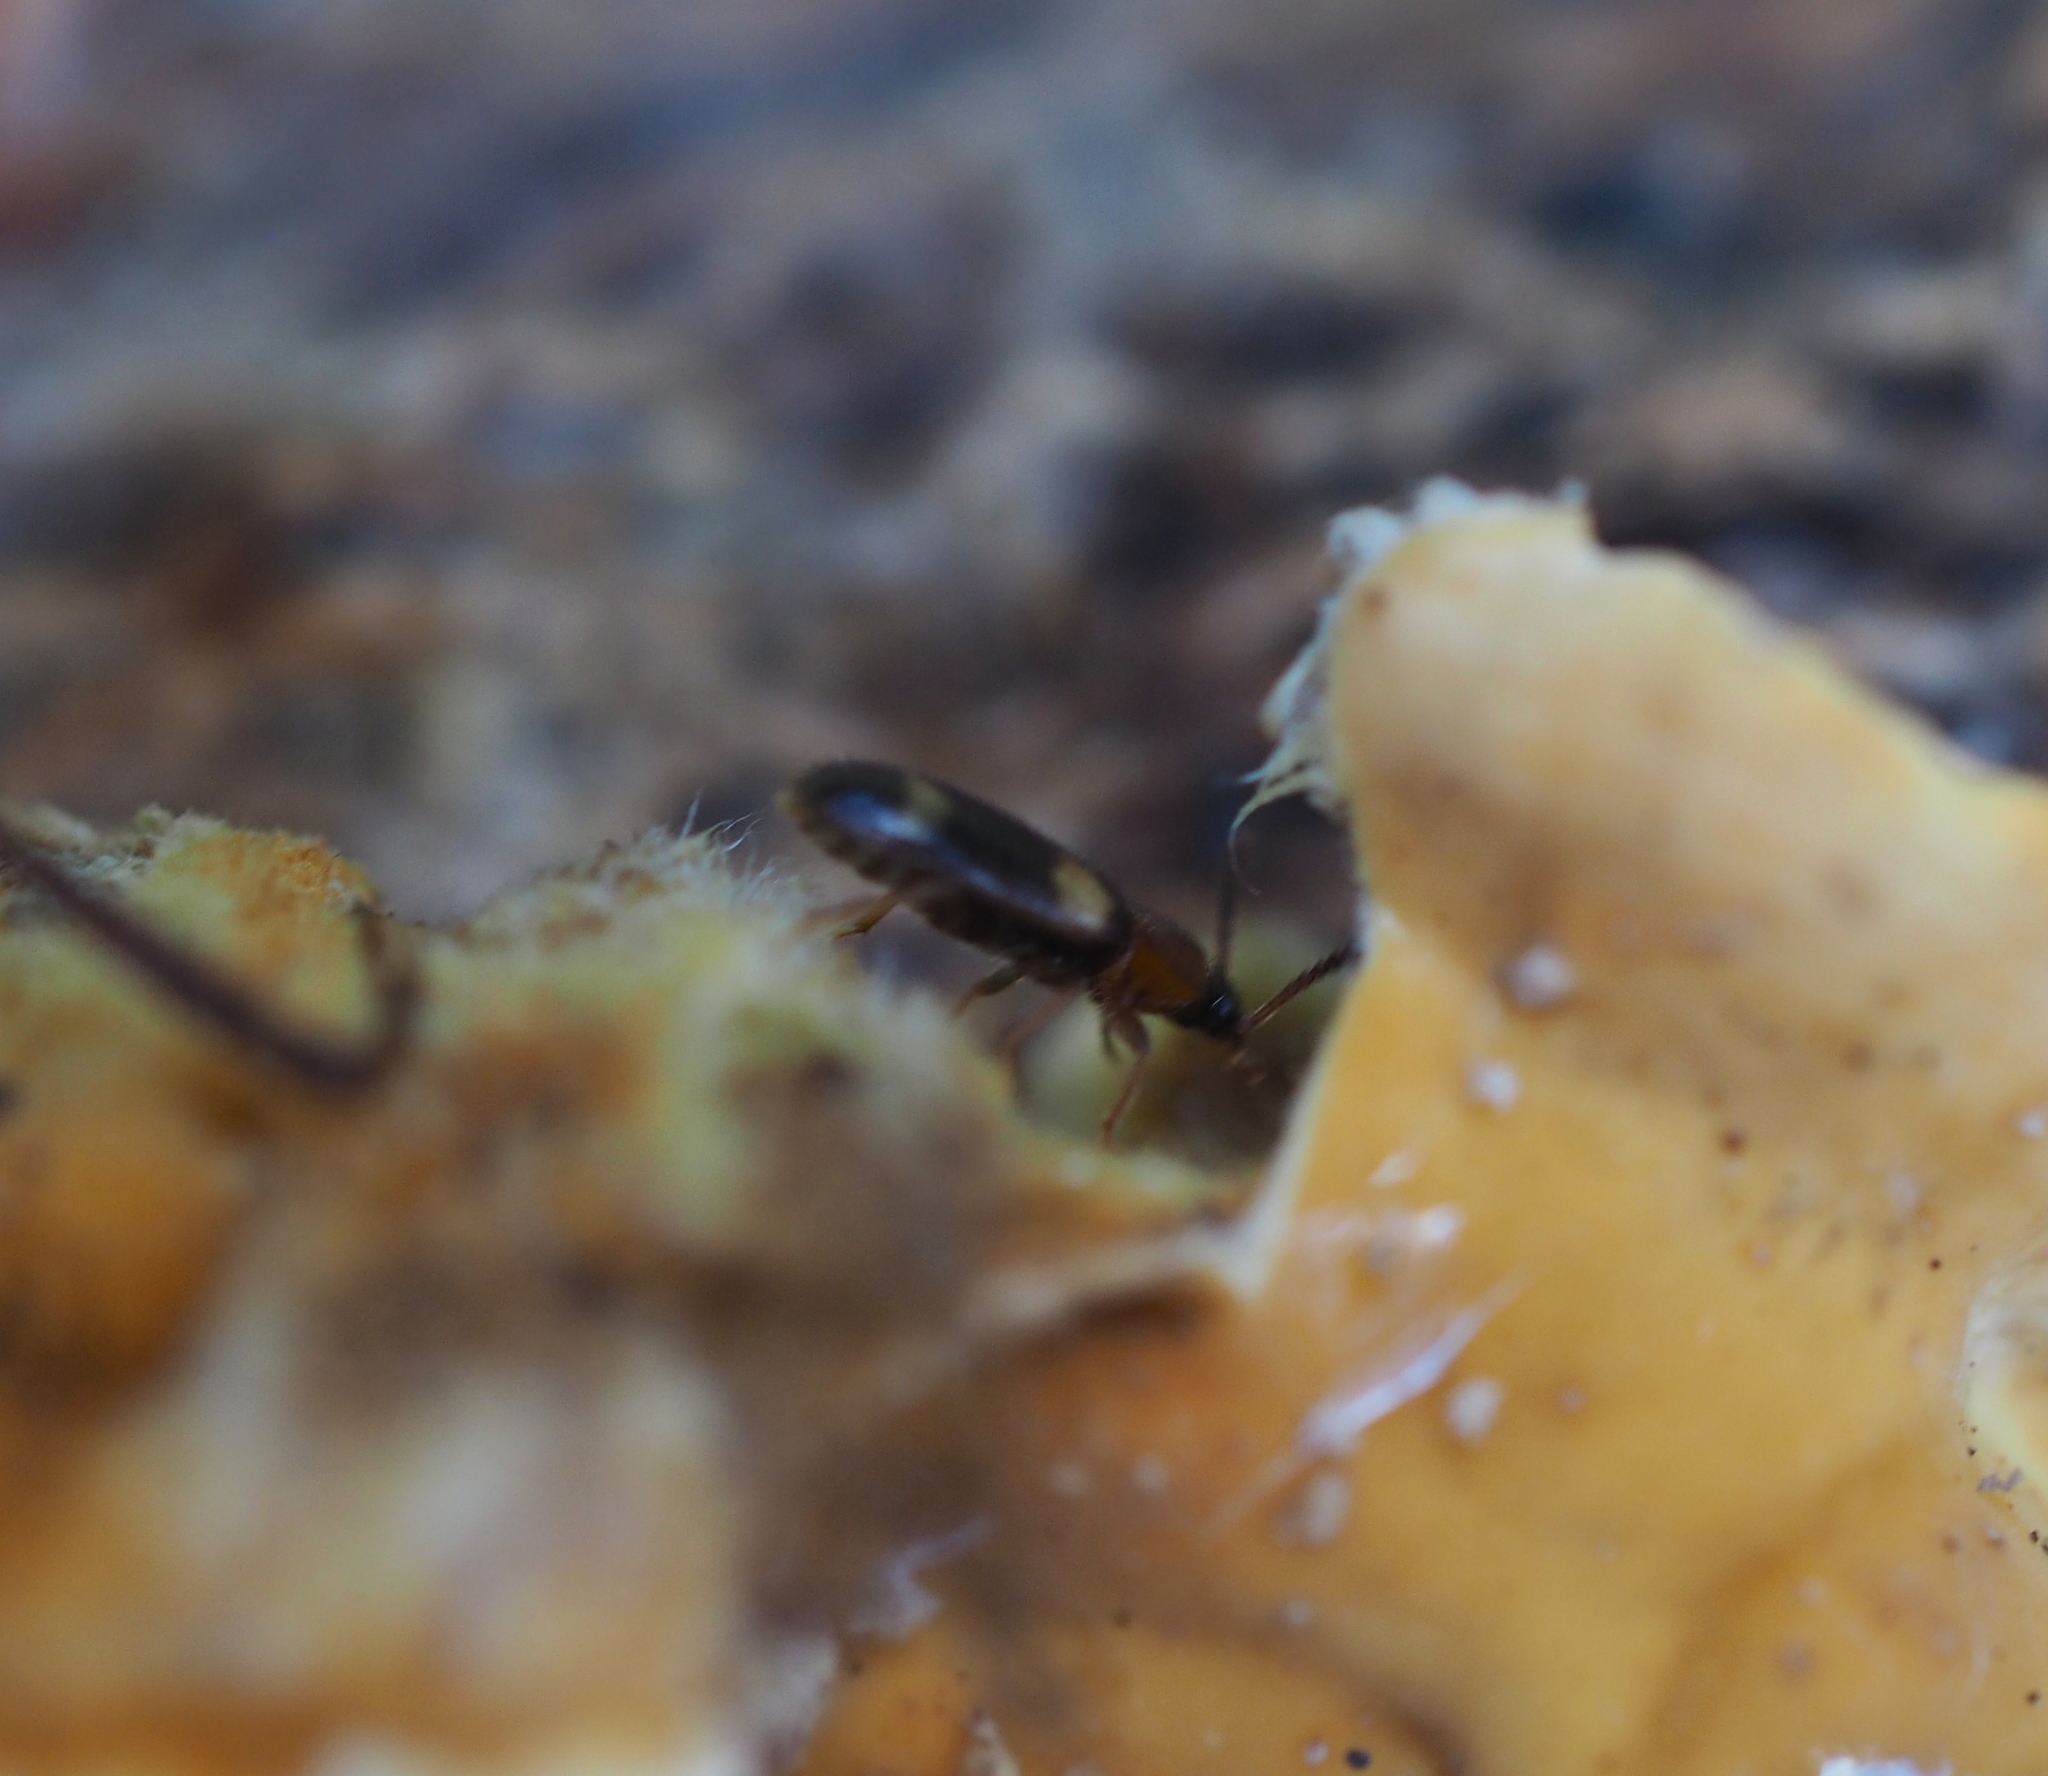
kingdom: Animalia
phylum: Arthropoda
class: Insecta
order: Coleoptera
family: Mycetophagidae
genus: Mycetophagus
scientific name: Mycetophagus fulvicollis
